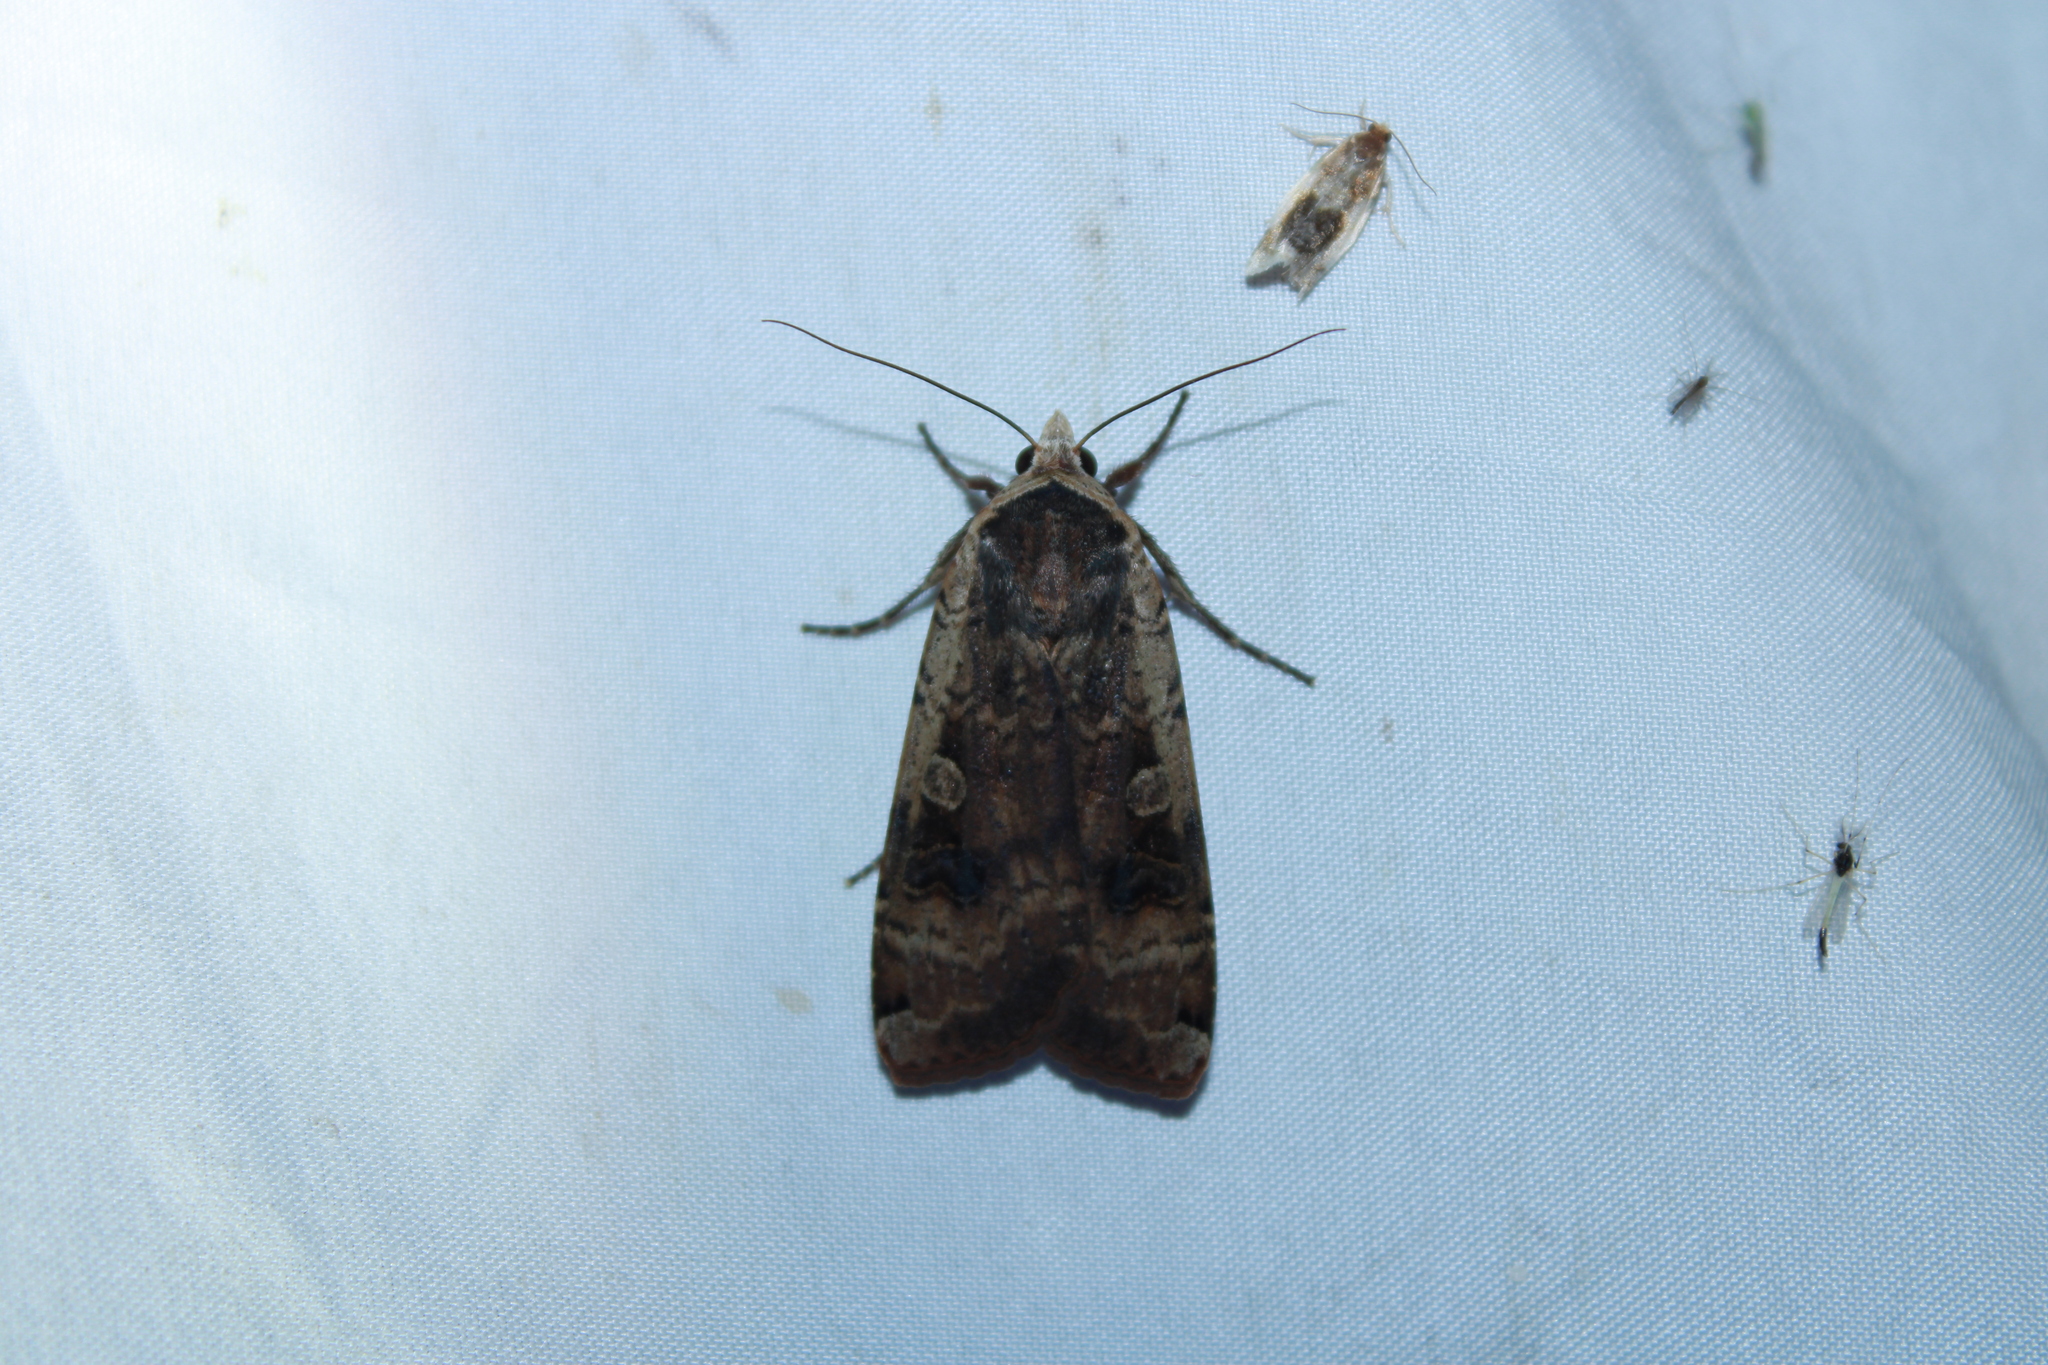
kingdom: Animalia
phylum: Arthropoda
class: Insecta
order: Lepidoptera
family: Noctuidae
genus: Noctua
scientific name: Noctua pronuba
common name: Large yellow underwing
